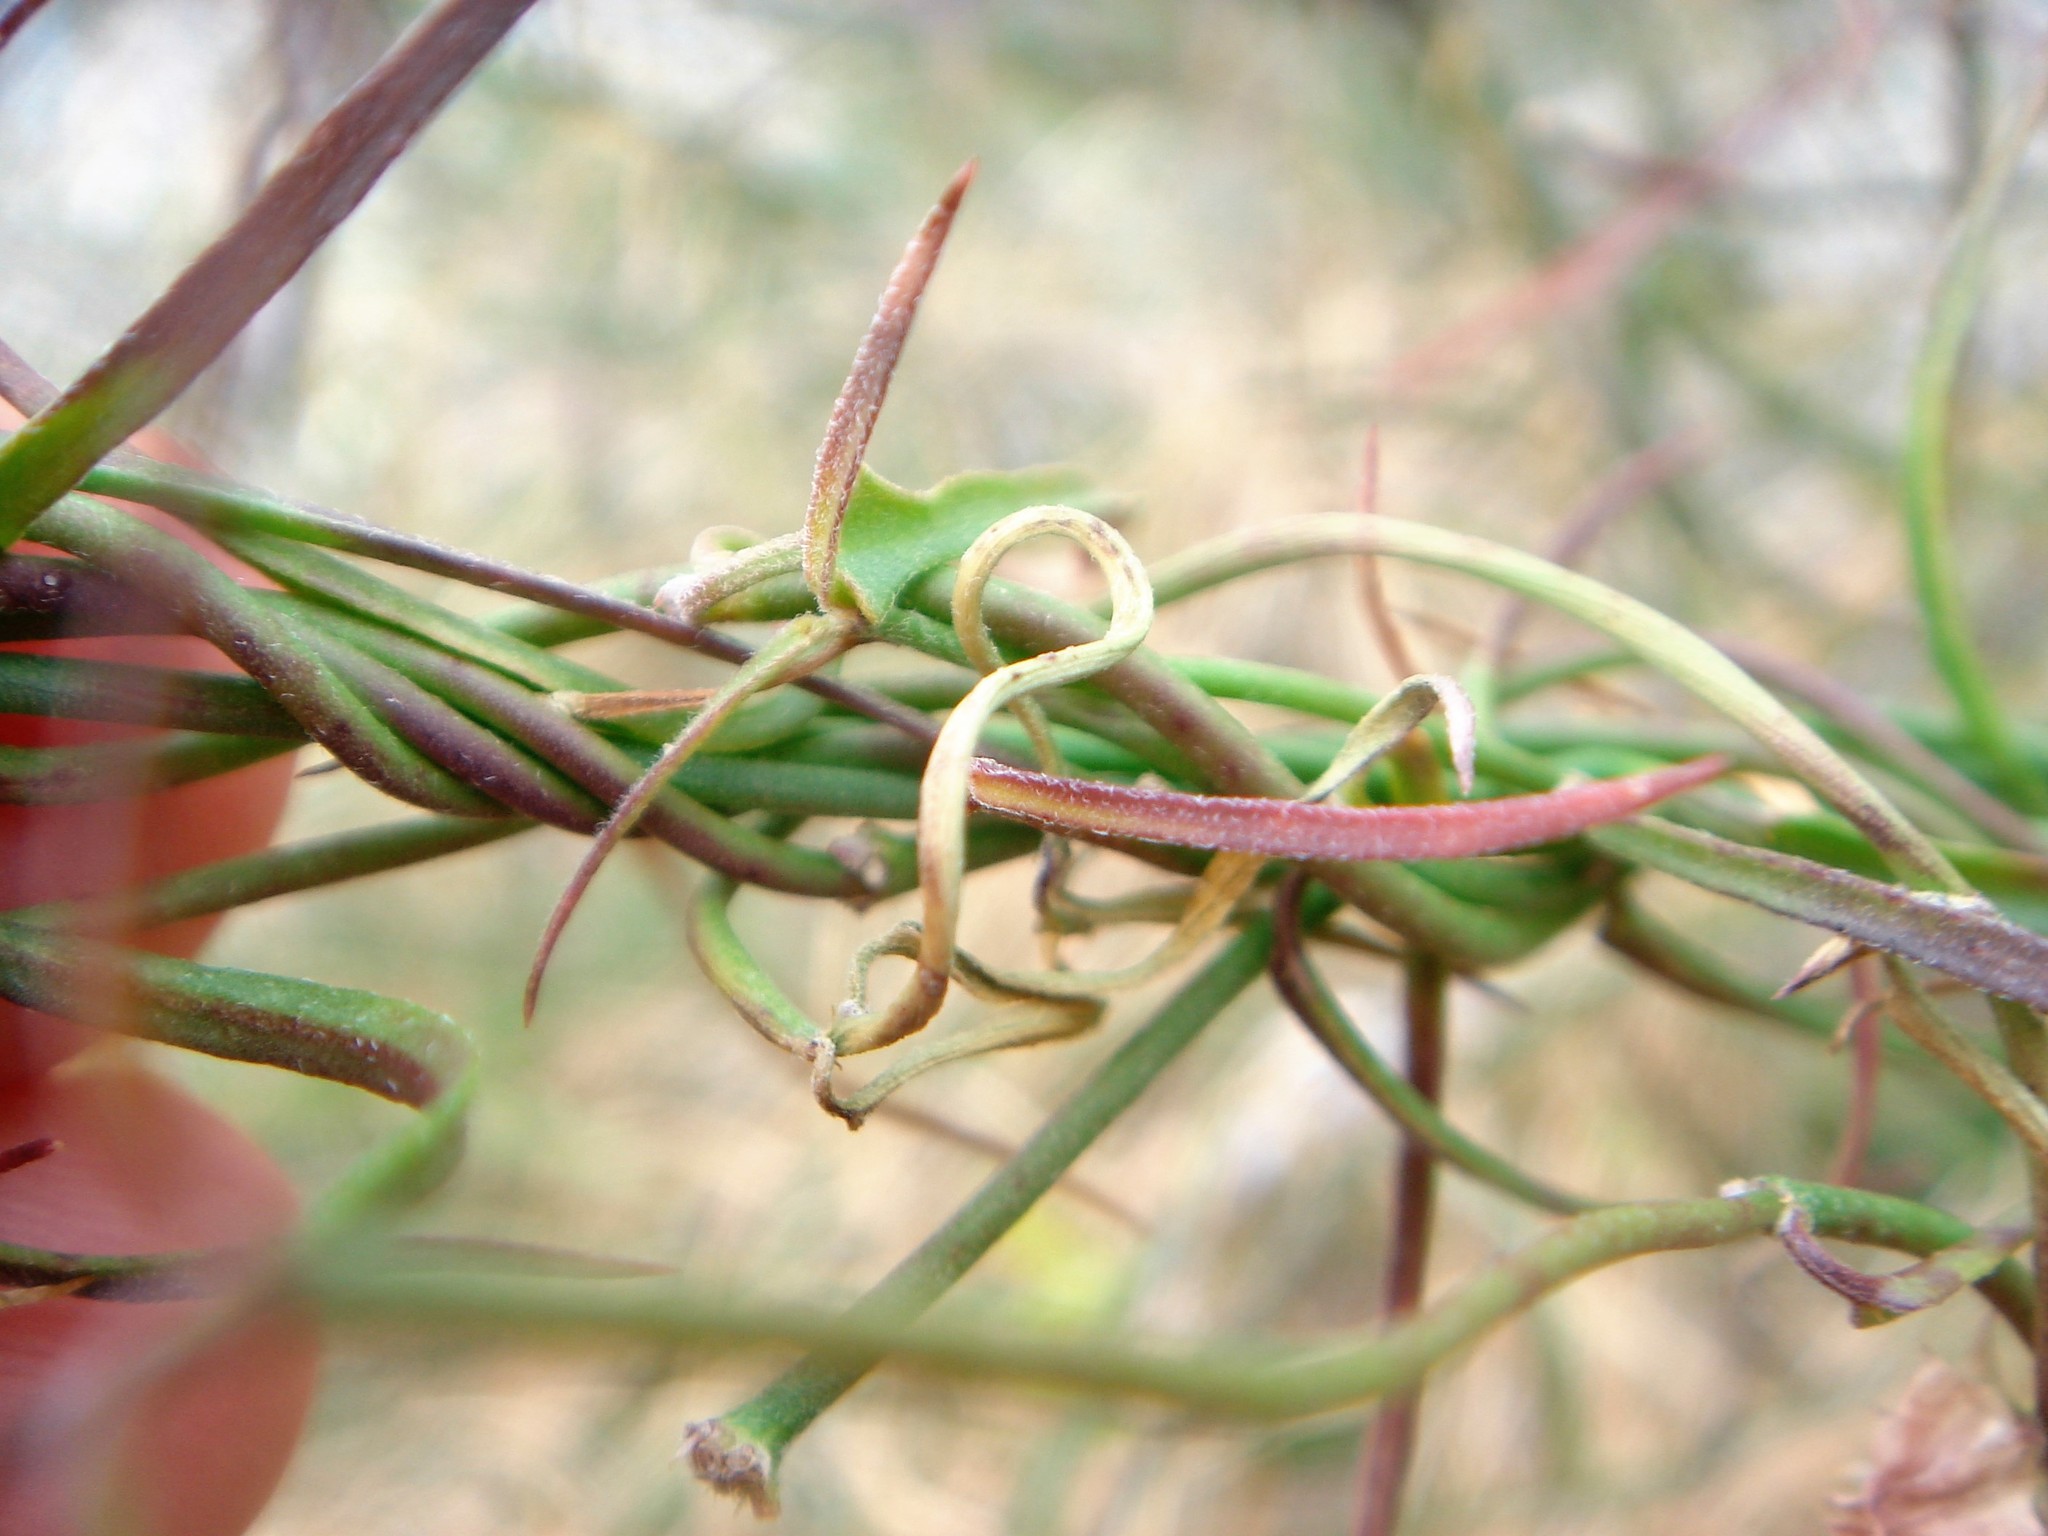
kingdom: Plantae
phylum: Tracheophyta
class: Magnoliopsida
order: Gentianales
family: Apocynaceae
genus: Funastrum
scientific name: Funastrum heterophyllum
